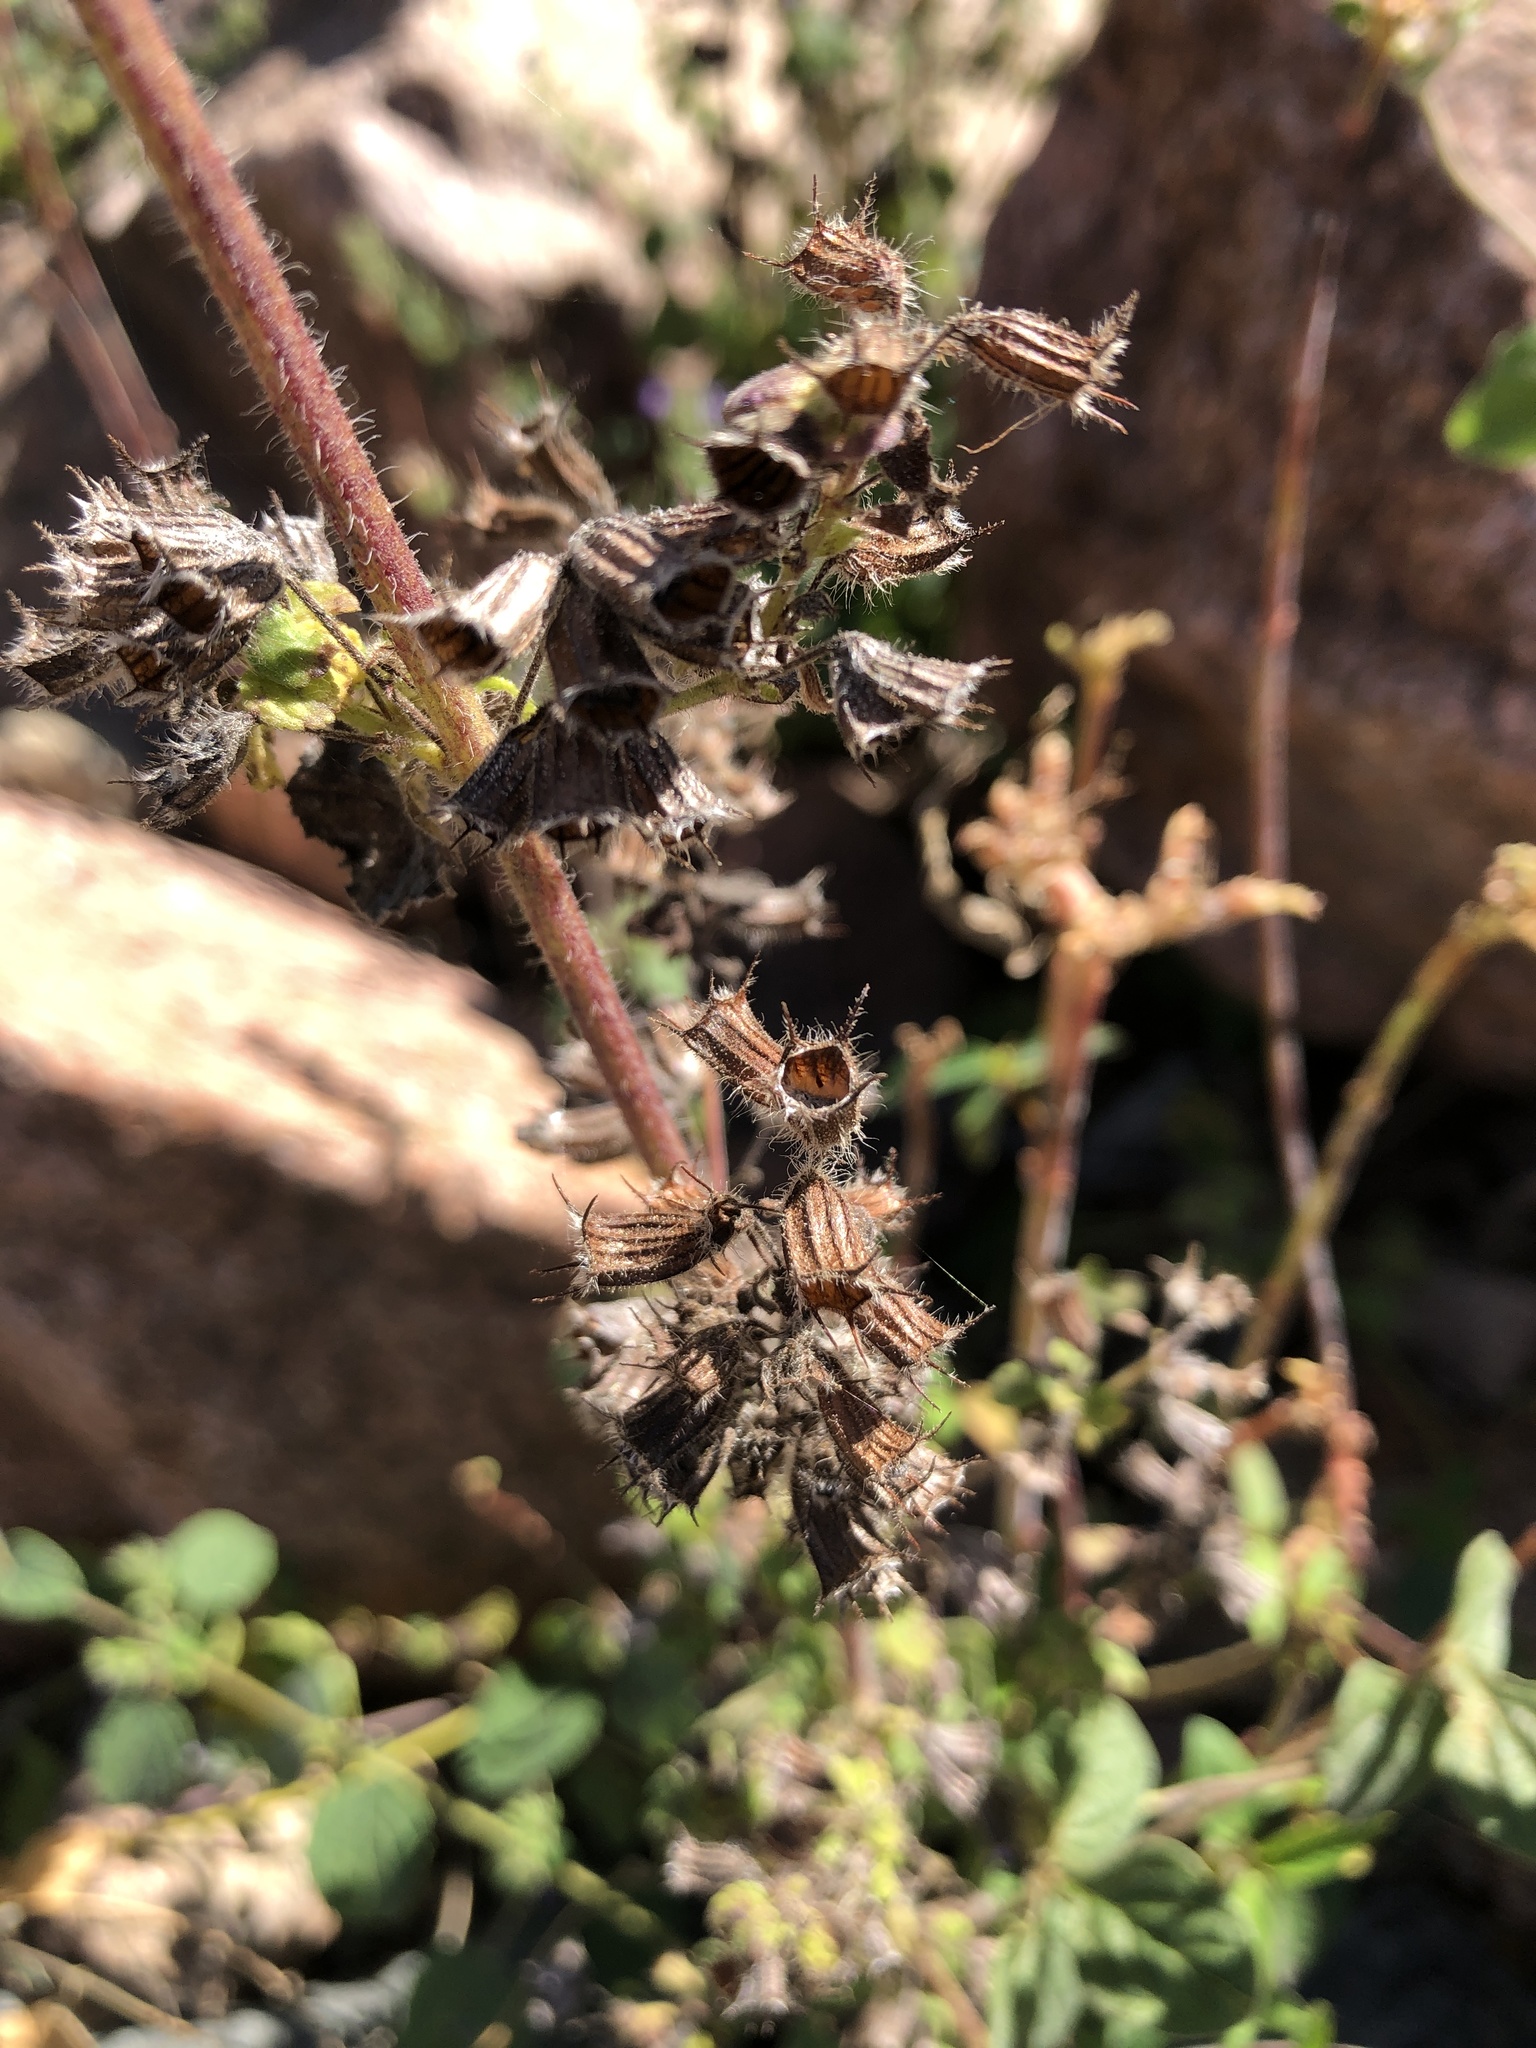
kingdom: Plantae
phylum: Tracheophyta
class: Magnoliopsida
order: Lamiales
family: Lamiaceae
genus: Mesosphaerum
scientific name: Mesosphaerum suaveolens
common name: Pignut
